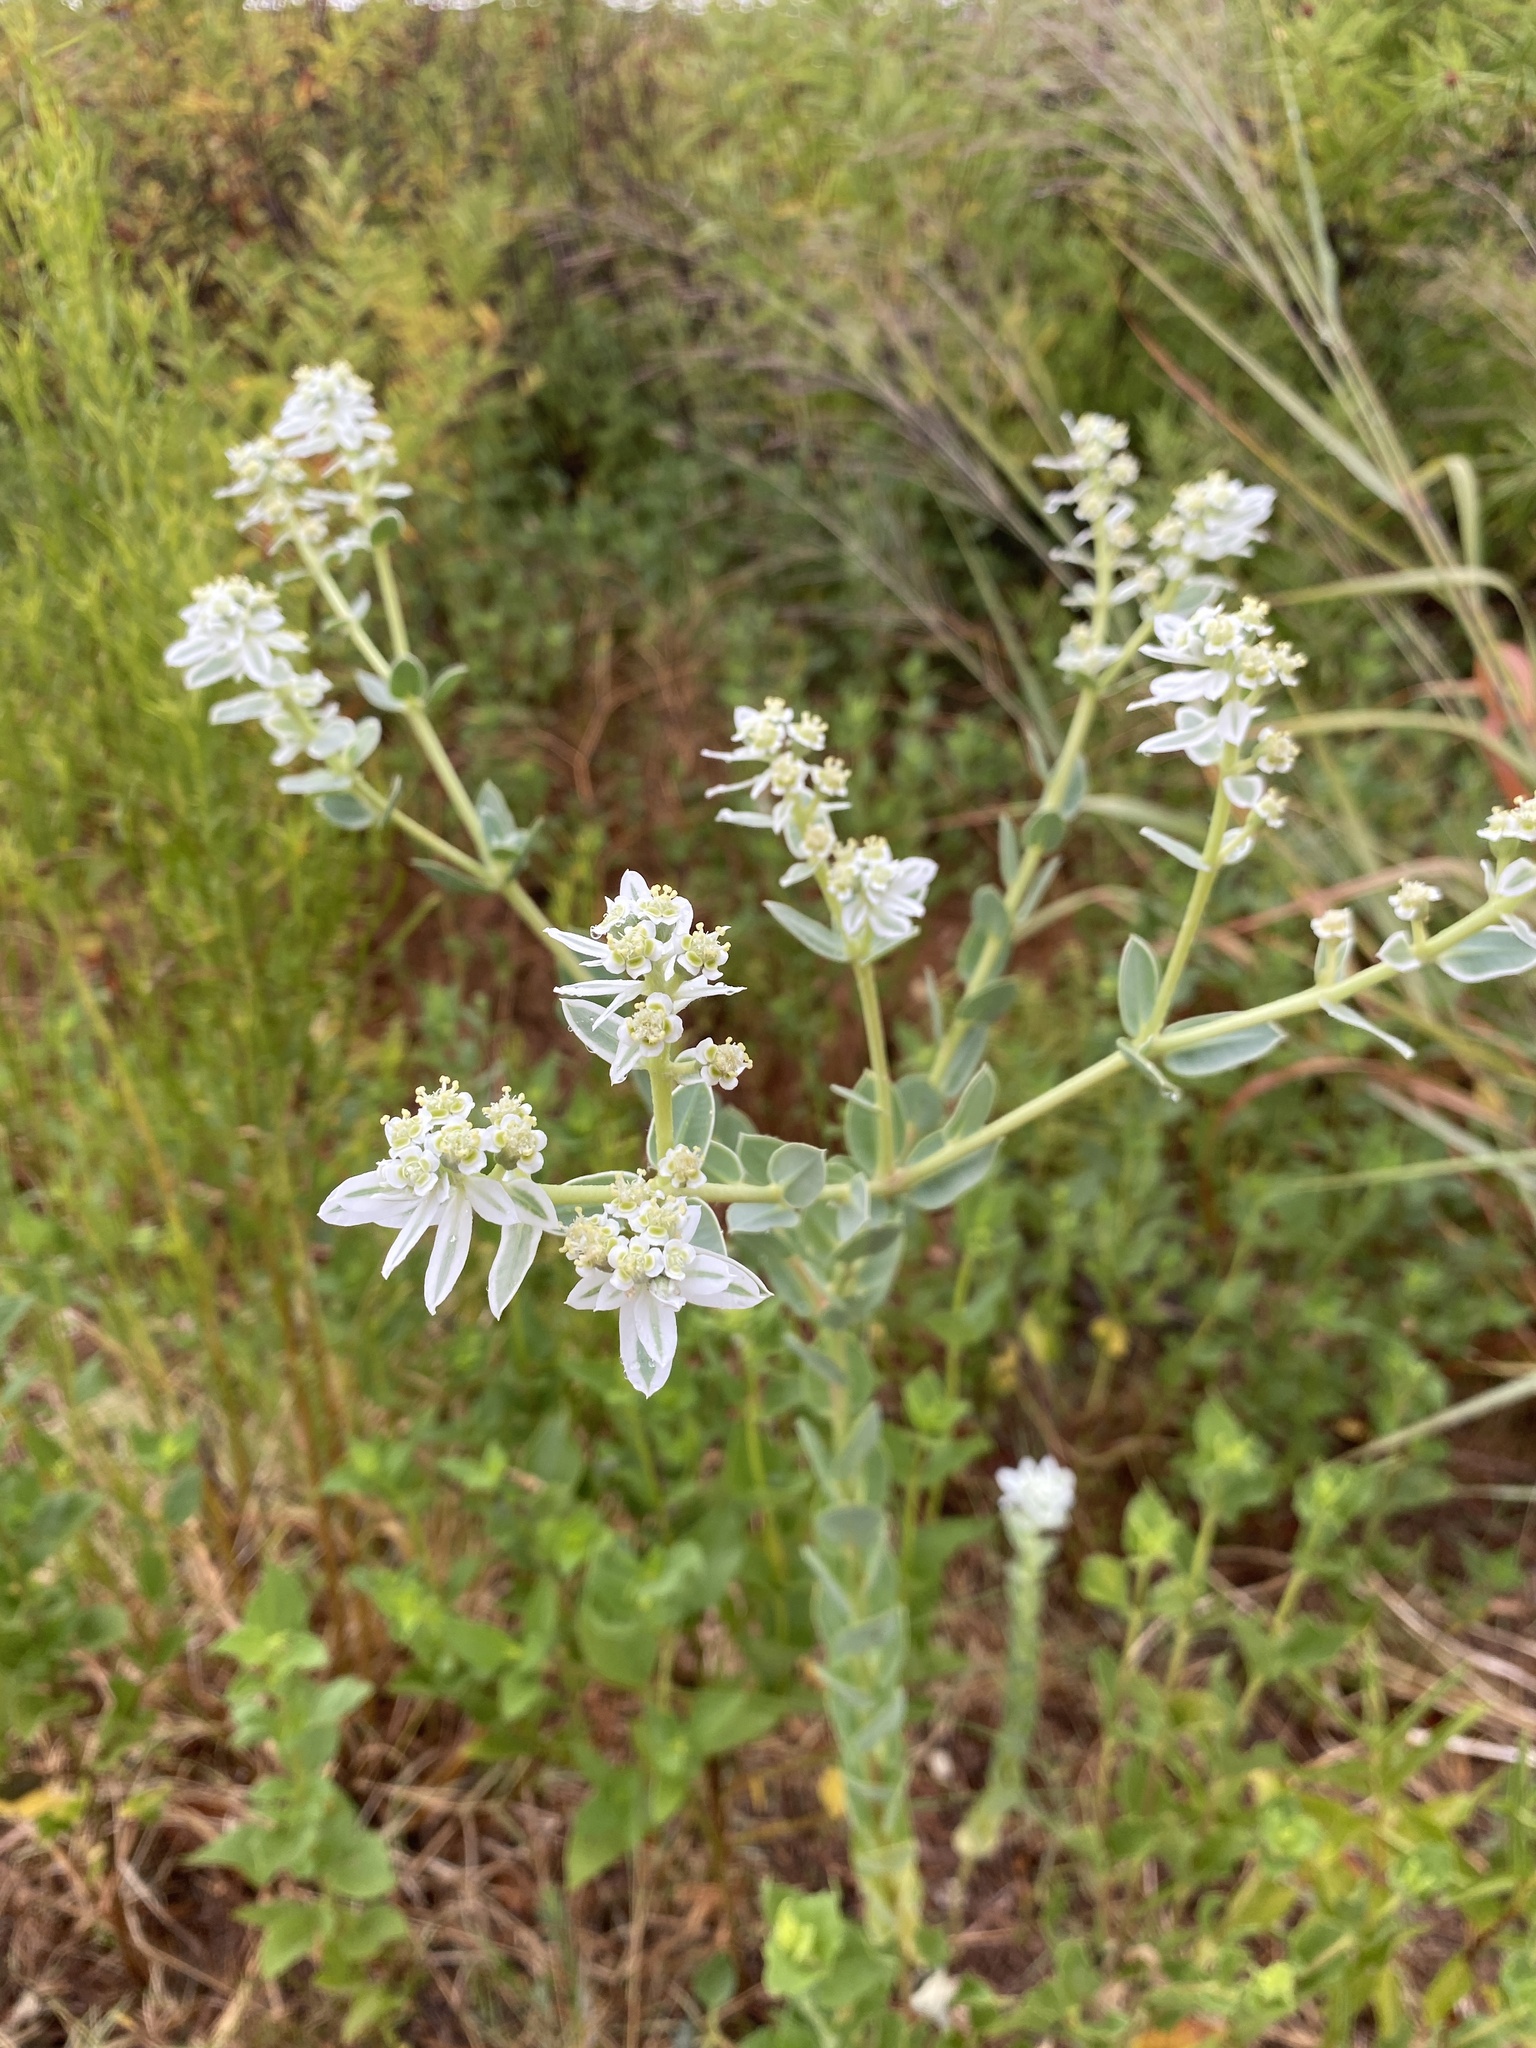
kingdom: Plantae
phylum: Tracheophyta
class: Magnoliopsida
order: Malpighiales
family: Euphorbiaceae
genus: Euphorbia
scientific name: Euphorbia marginata
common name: Ghostweed
